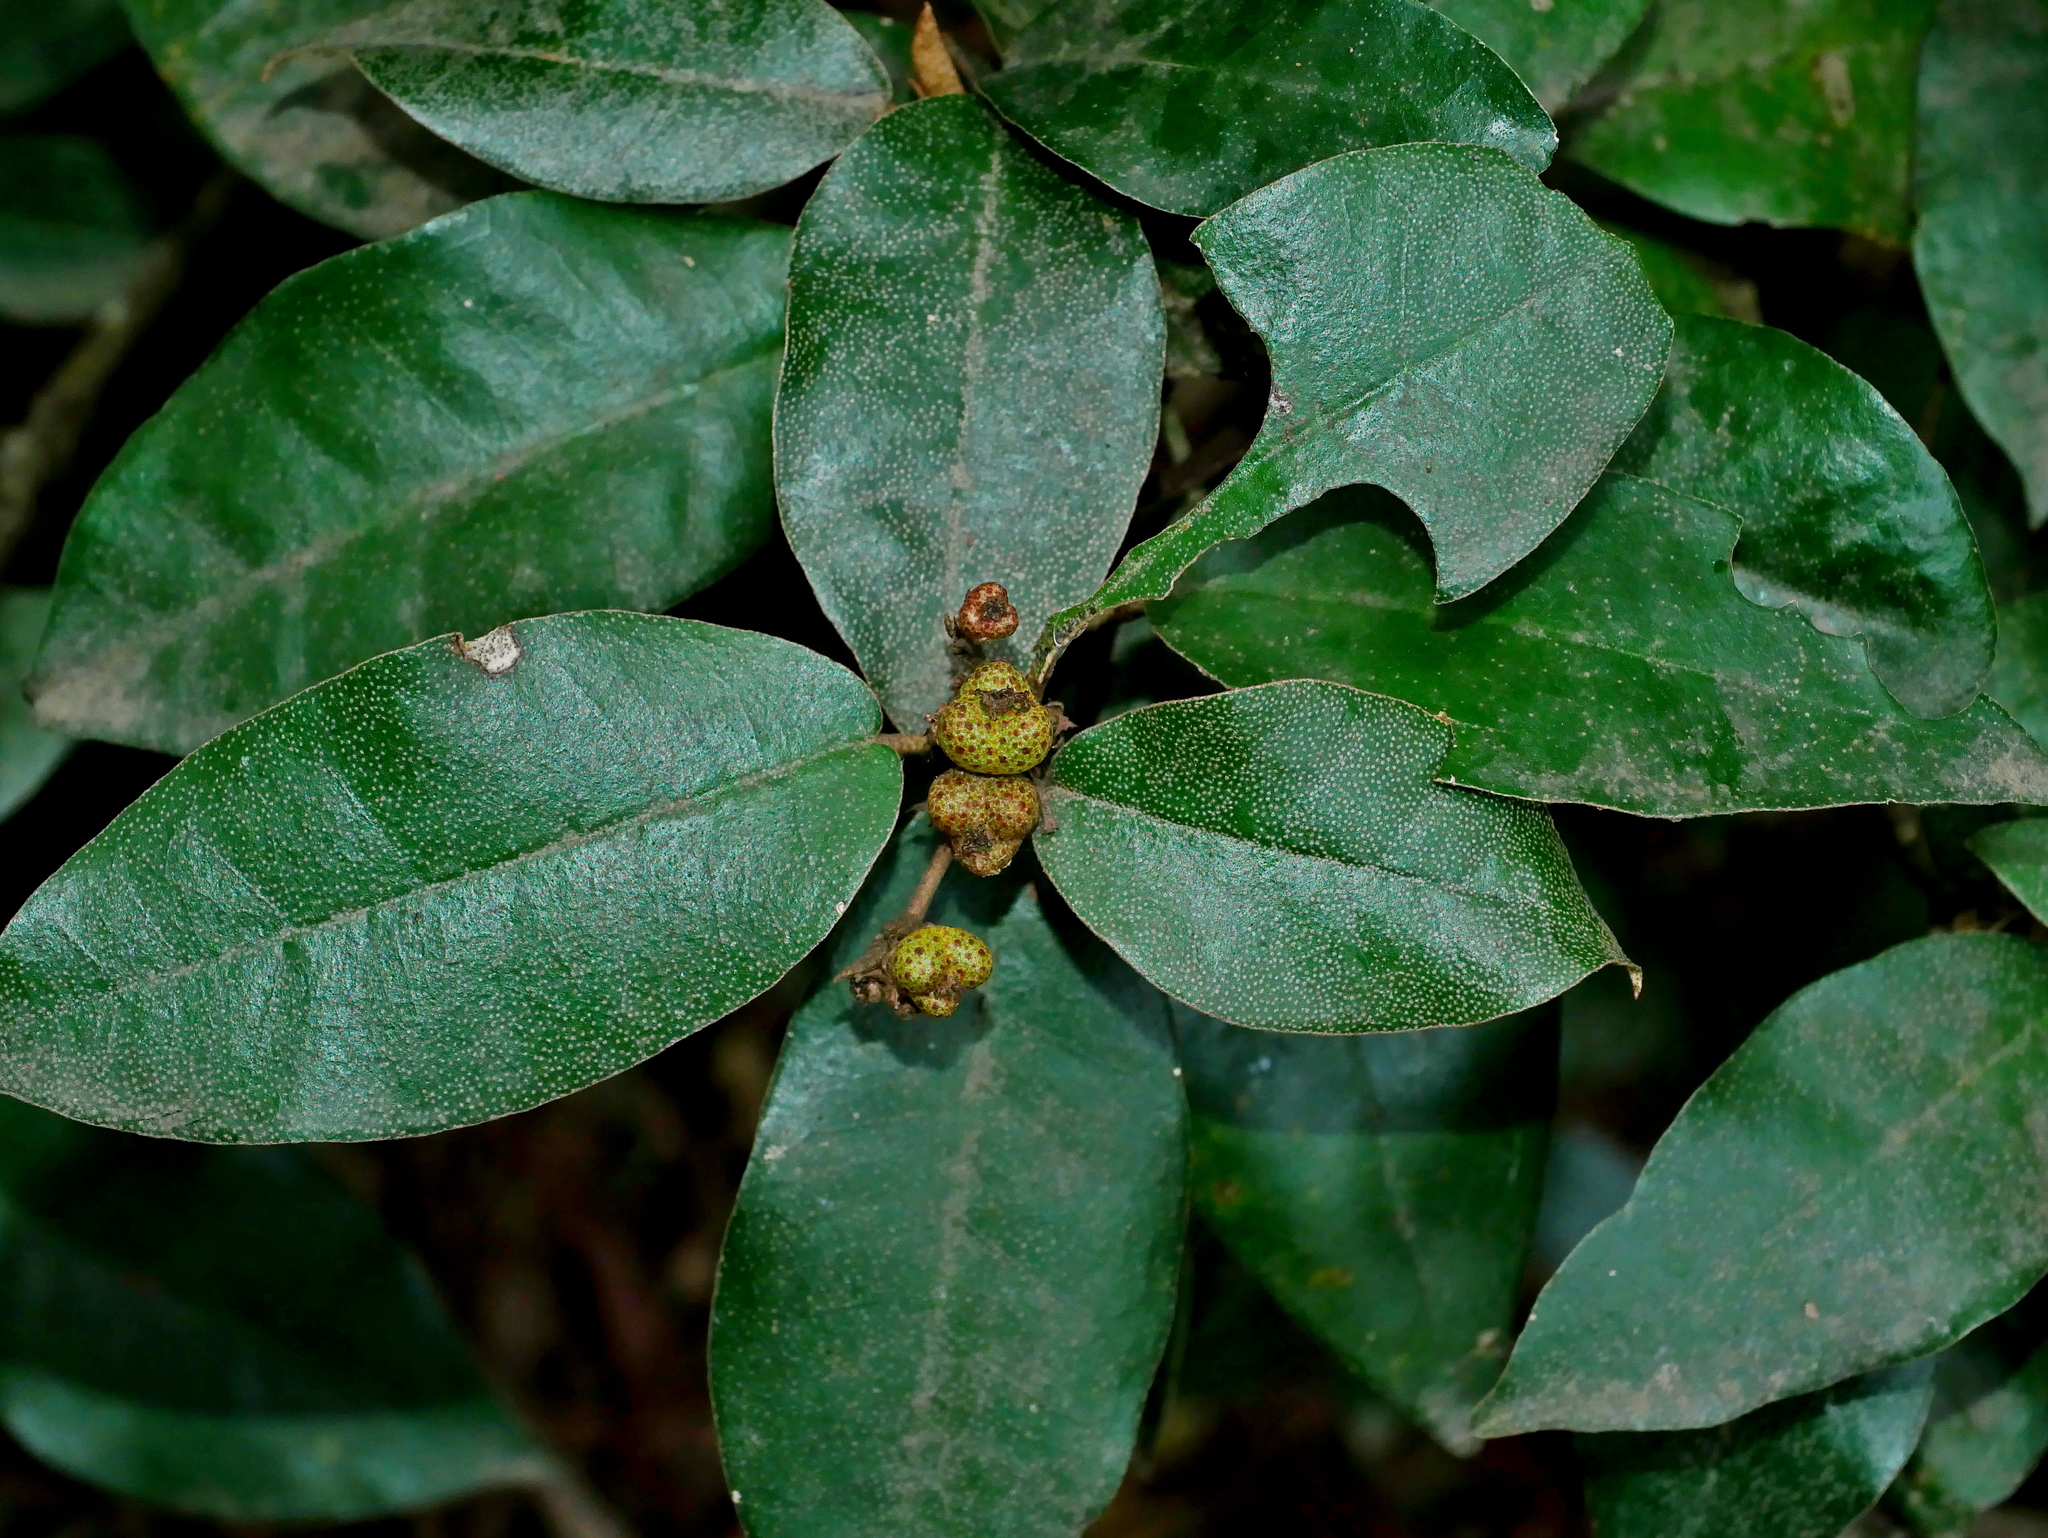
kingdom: Plantae
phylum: Tracheophyta
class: Magnoliopsida
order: Malpighiales
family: Euphorbiaceae
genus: Croton
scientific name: Croton cascarilloides
